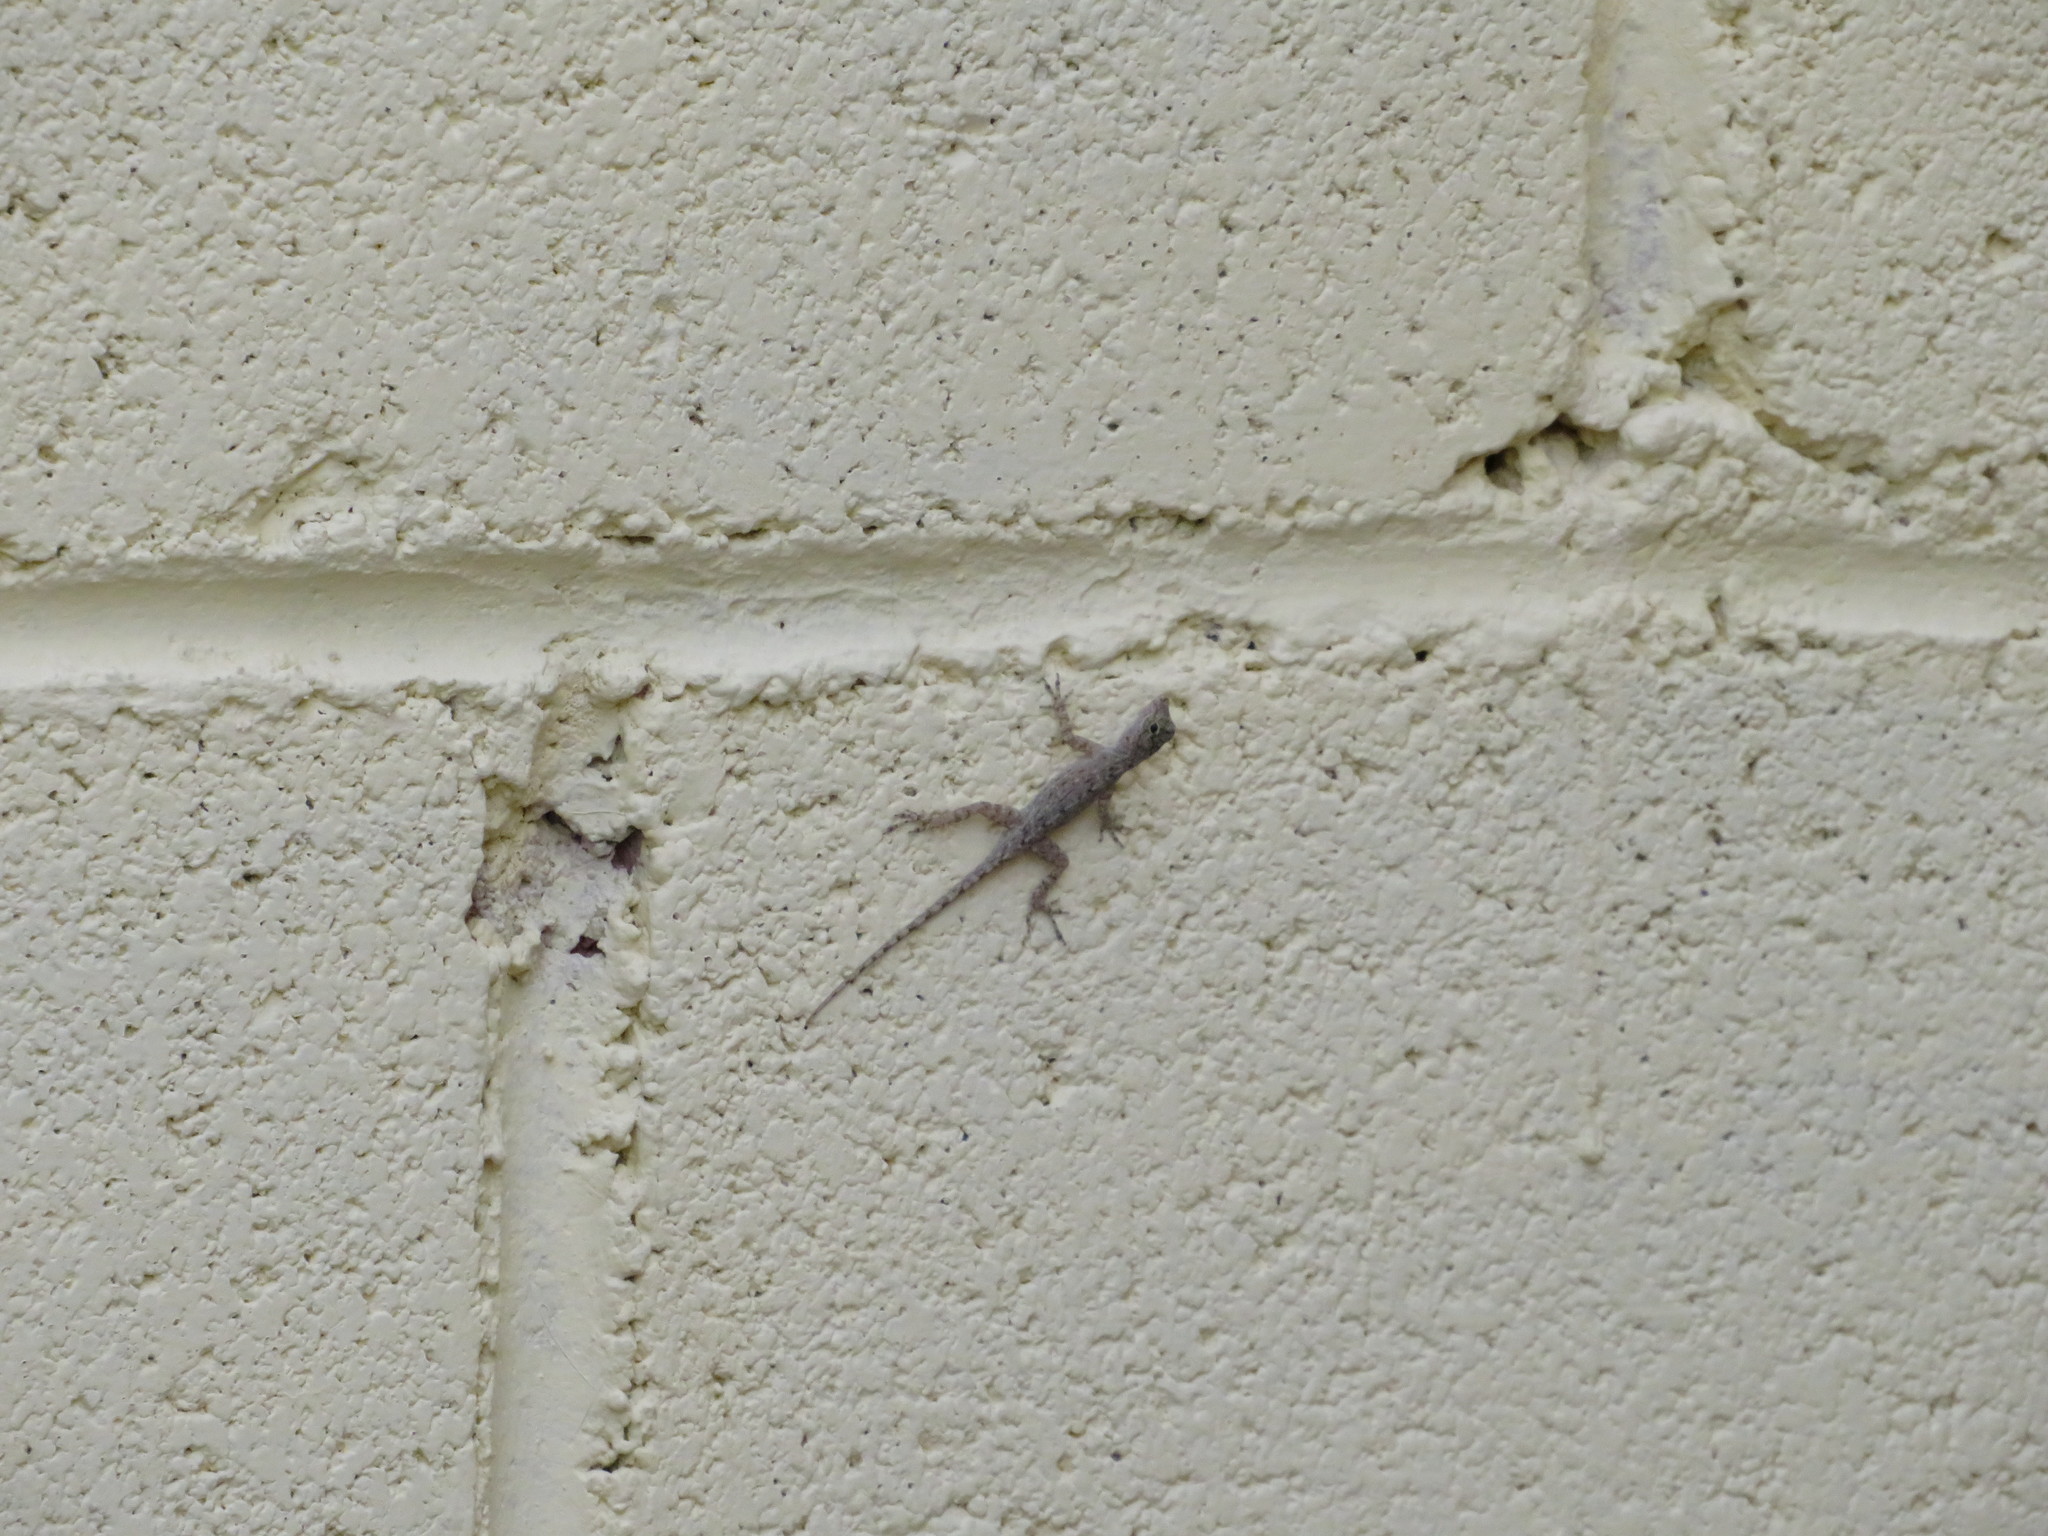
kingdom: Animalia
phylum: Chordata
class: Squamata
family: Dactyloidae
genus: Anolis
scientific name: Anolis distichus
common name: Bark anole
